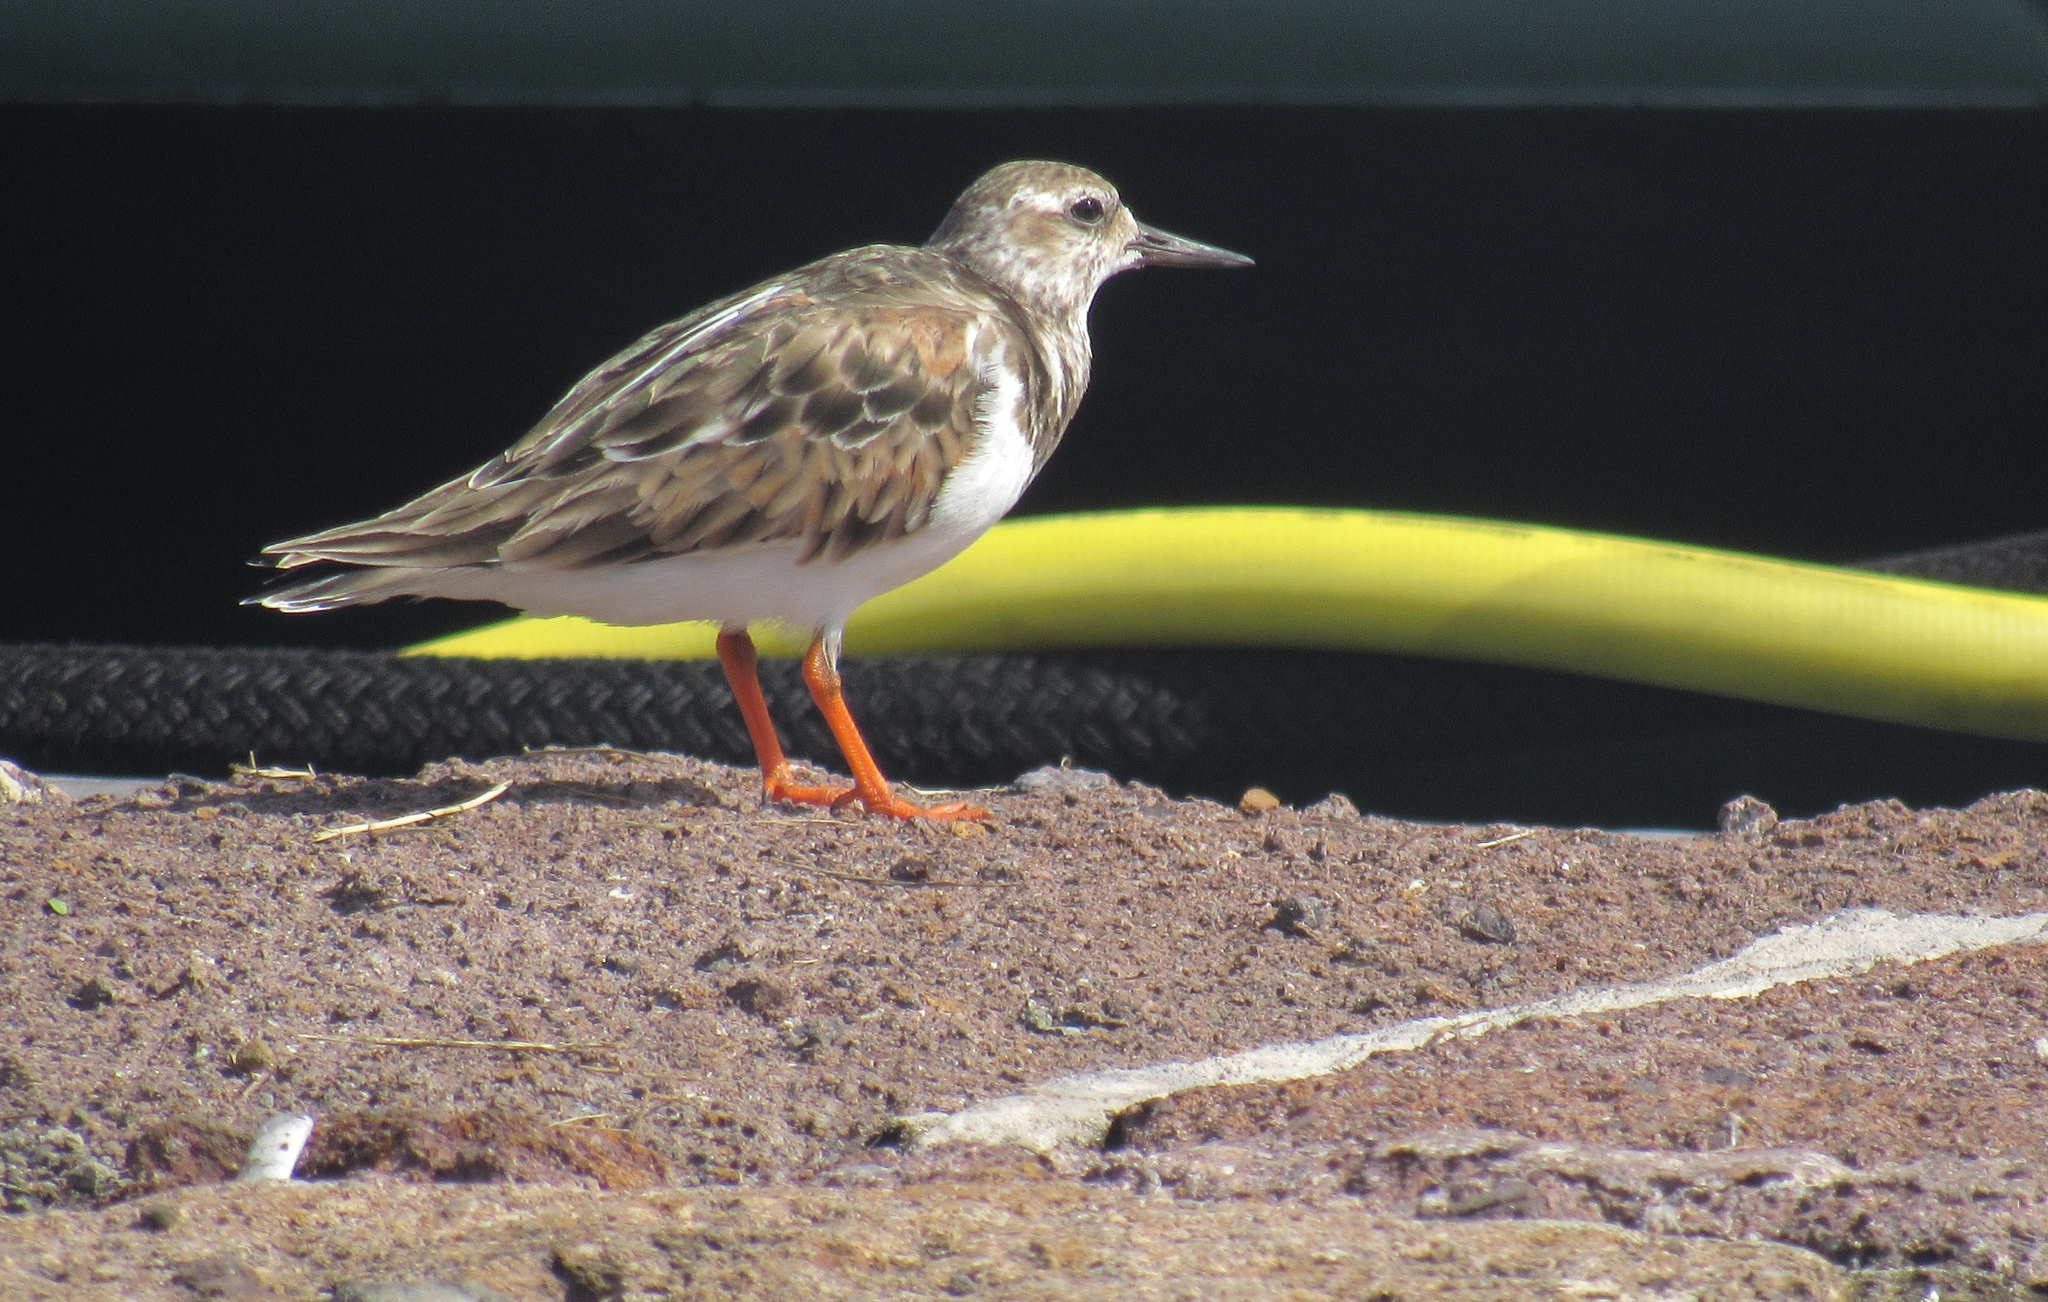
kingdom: Animalia
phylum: Chordata
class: Aves
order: Charadriiformes
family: Scolopacidae
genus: Arenaria
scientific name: Arenaria interpres
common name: Ruddy turnstone
